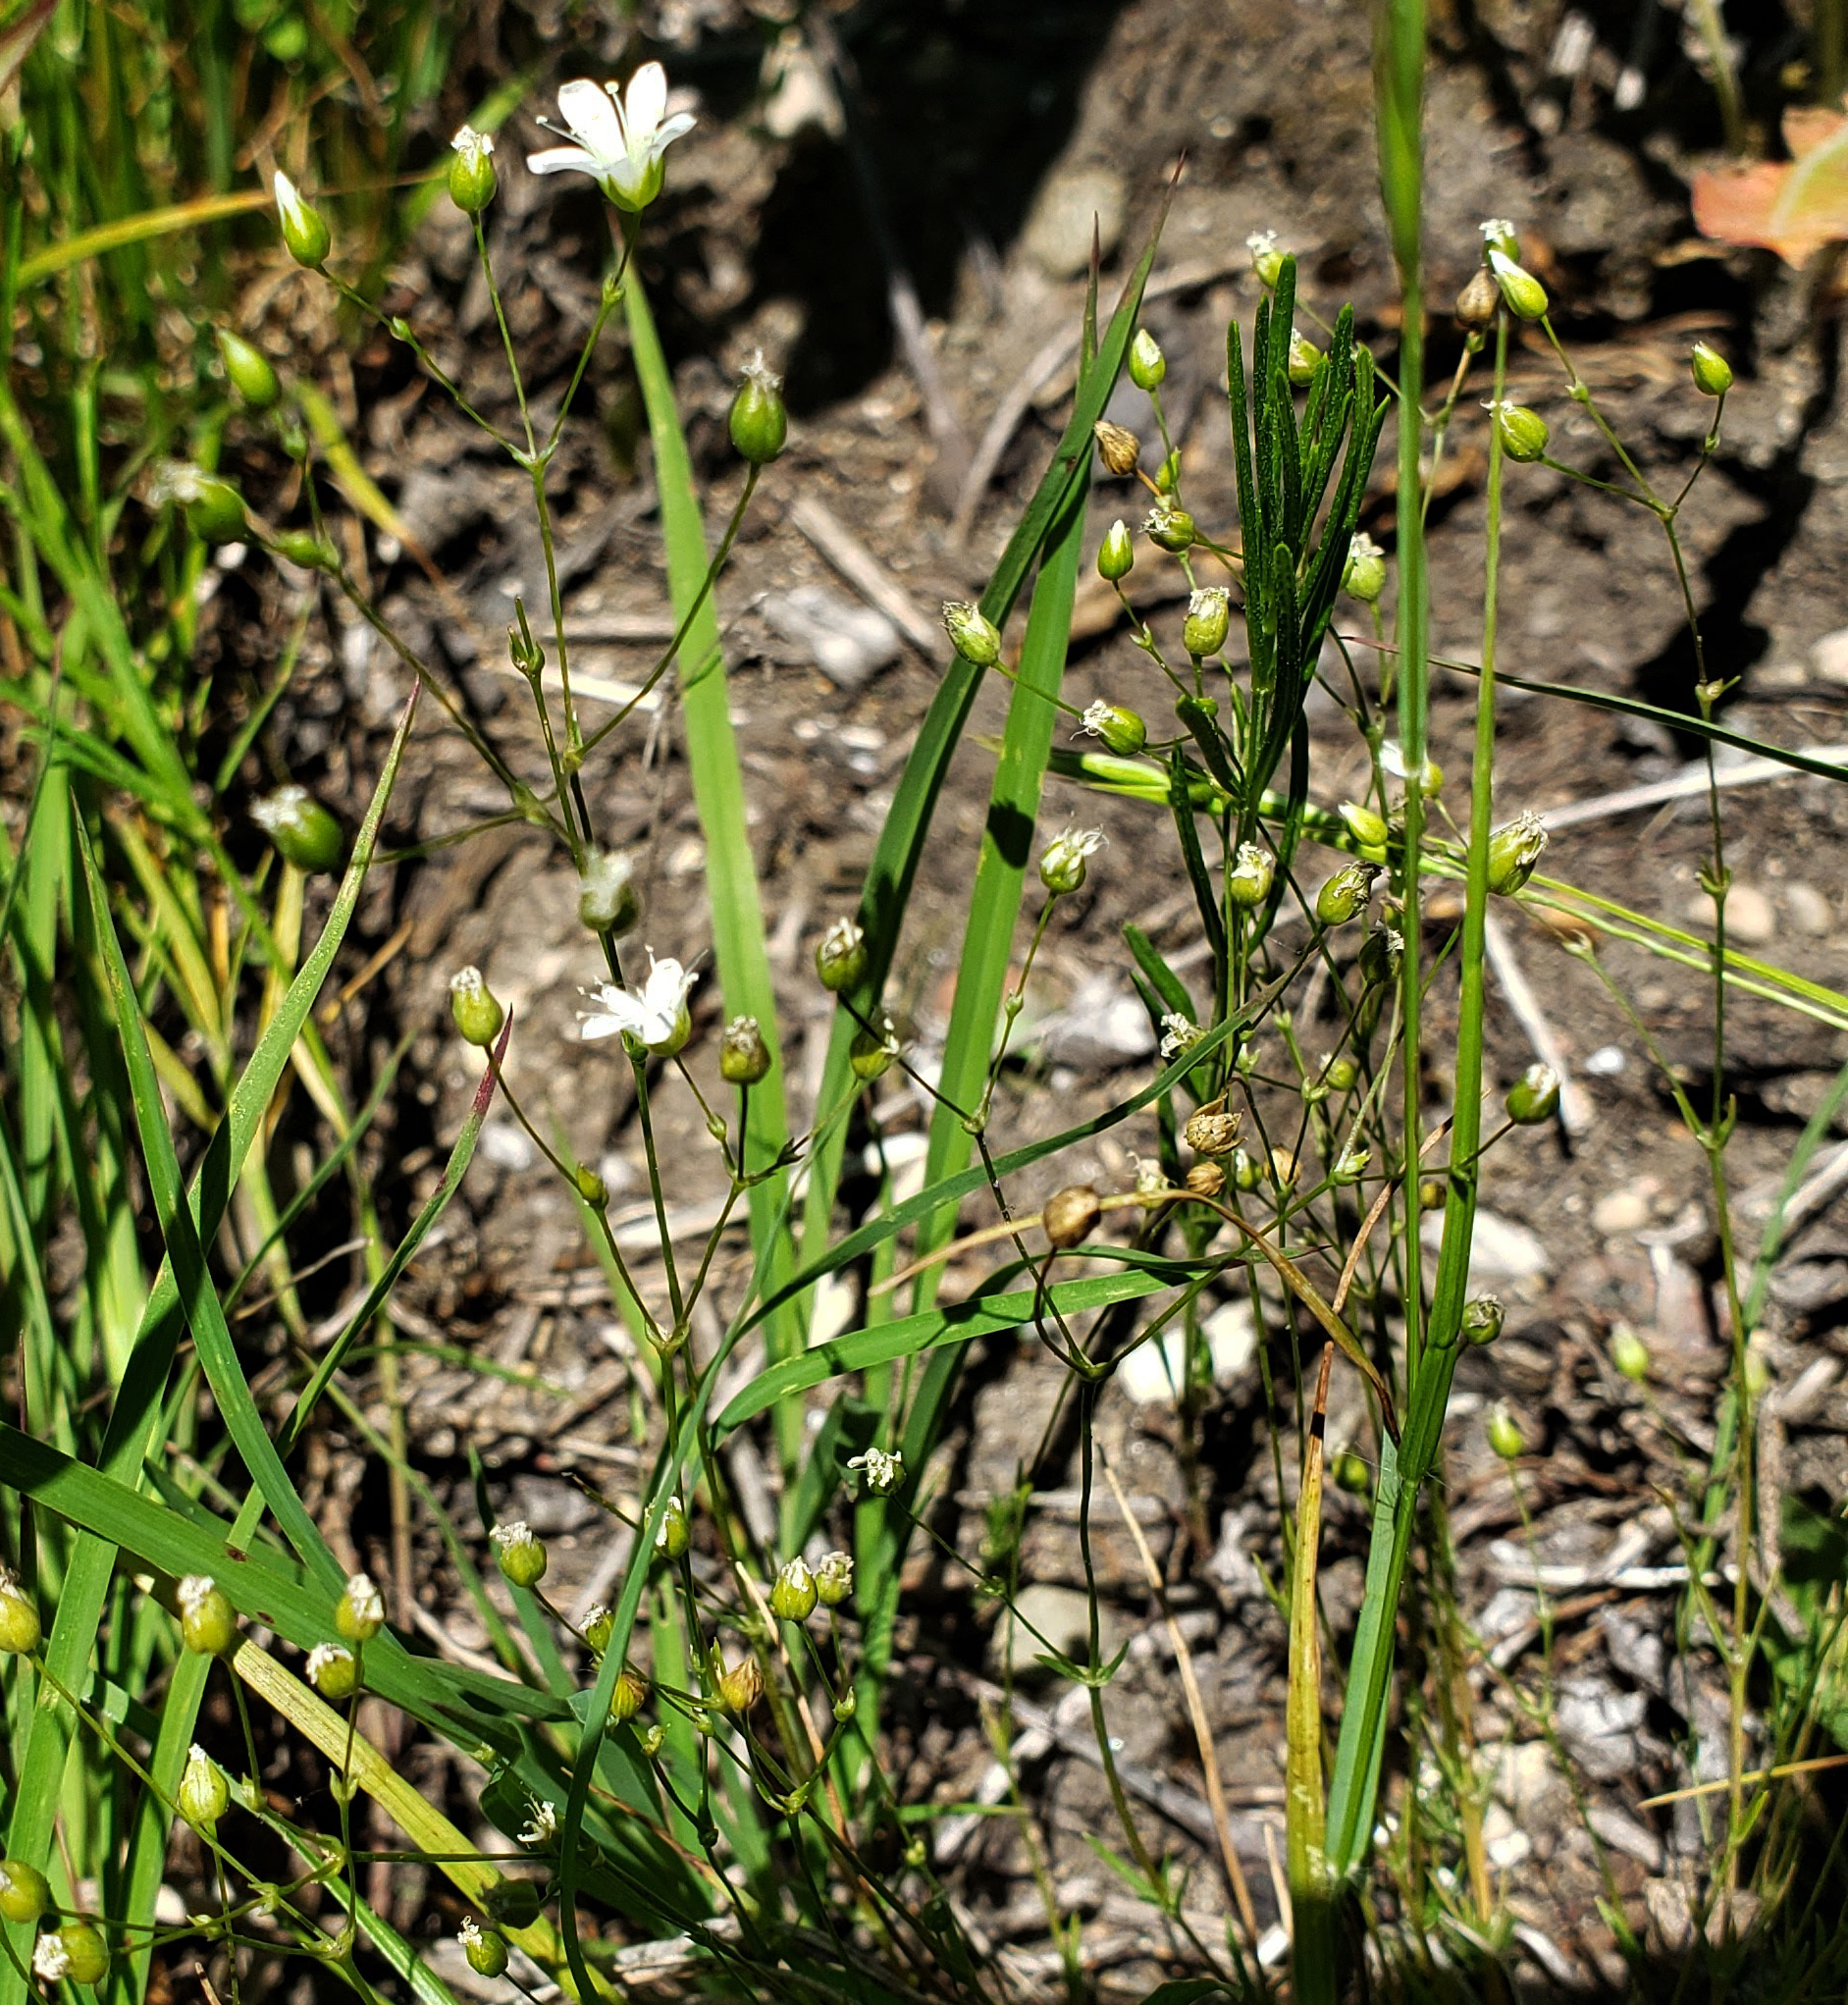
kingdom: Plantae
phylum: Tracheophyta
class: Magnoliopsida
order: Caryophyllales
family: Caryophyllaceae
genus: Sabulina
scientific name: Sabulina michauxii
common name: Michaux's stitchwort
